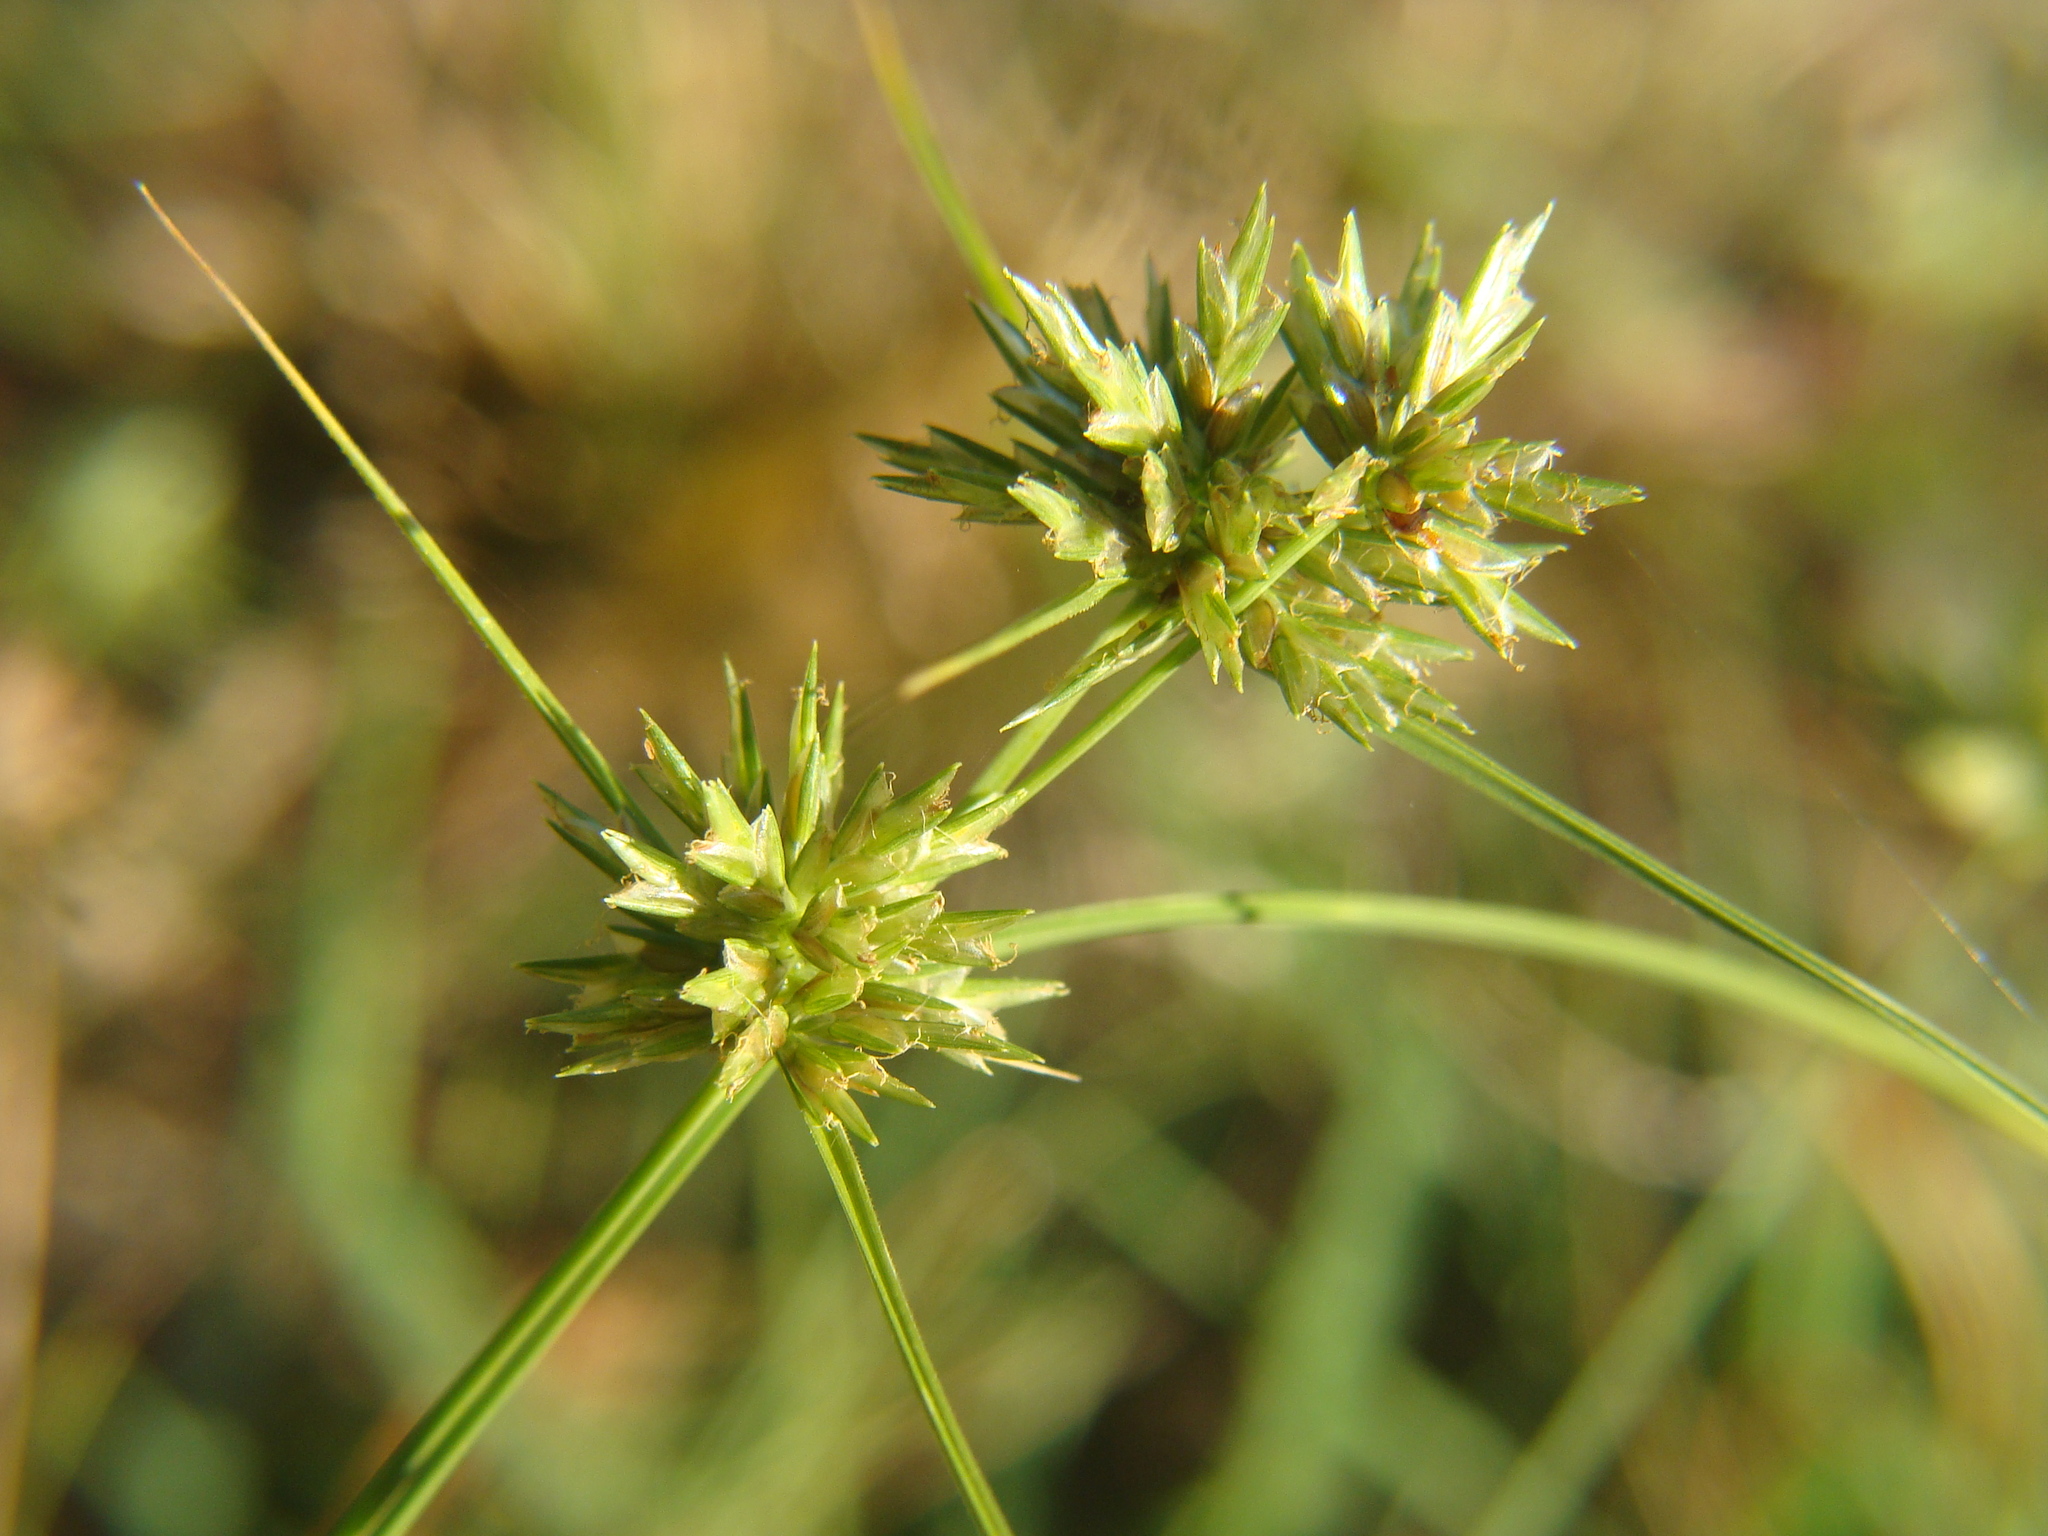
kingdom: Plantae
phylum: Tracheophyta
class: Liliopsida
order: Poales
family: Cyperaceae
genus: Cyperus
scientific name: Cyperus lupulinus
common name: Great plains flatsedge
